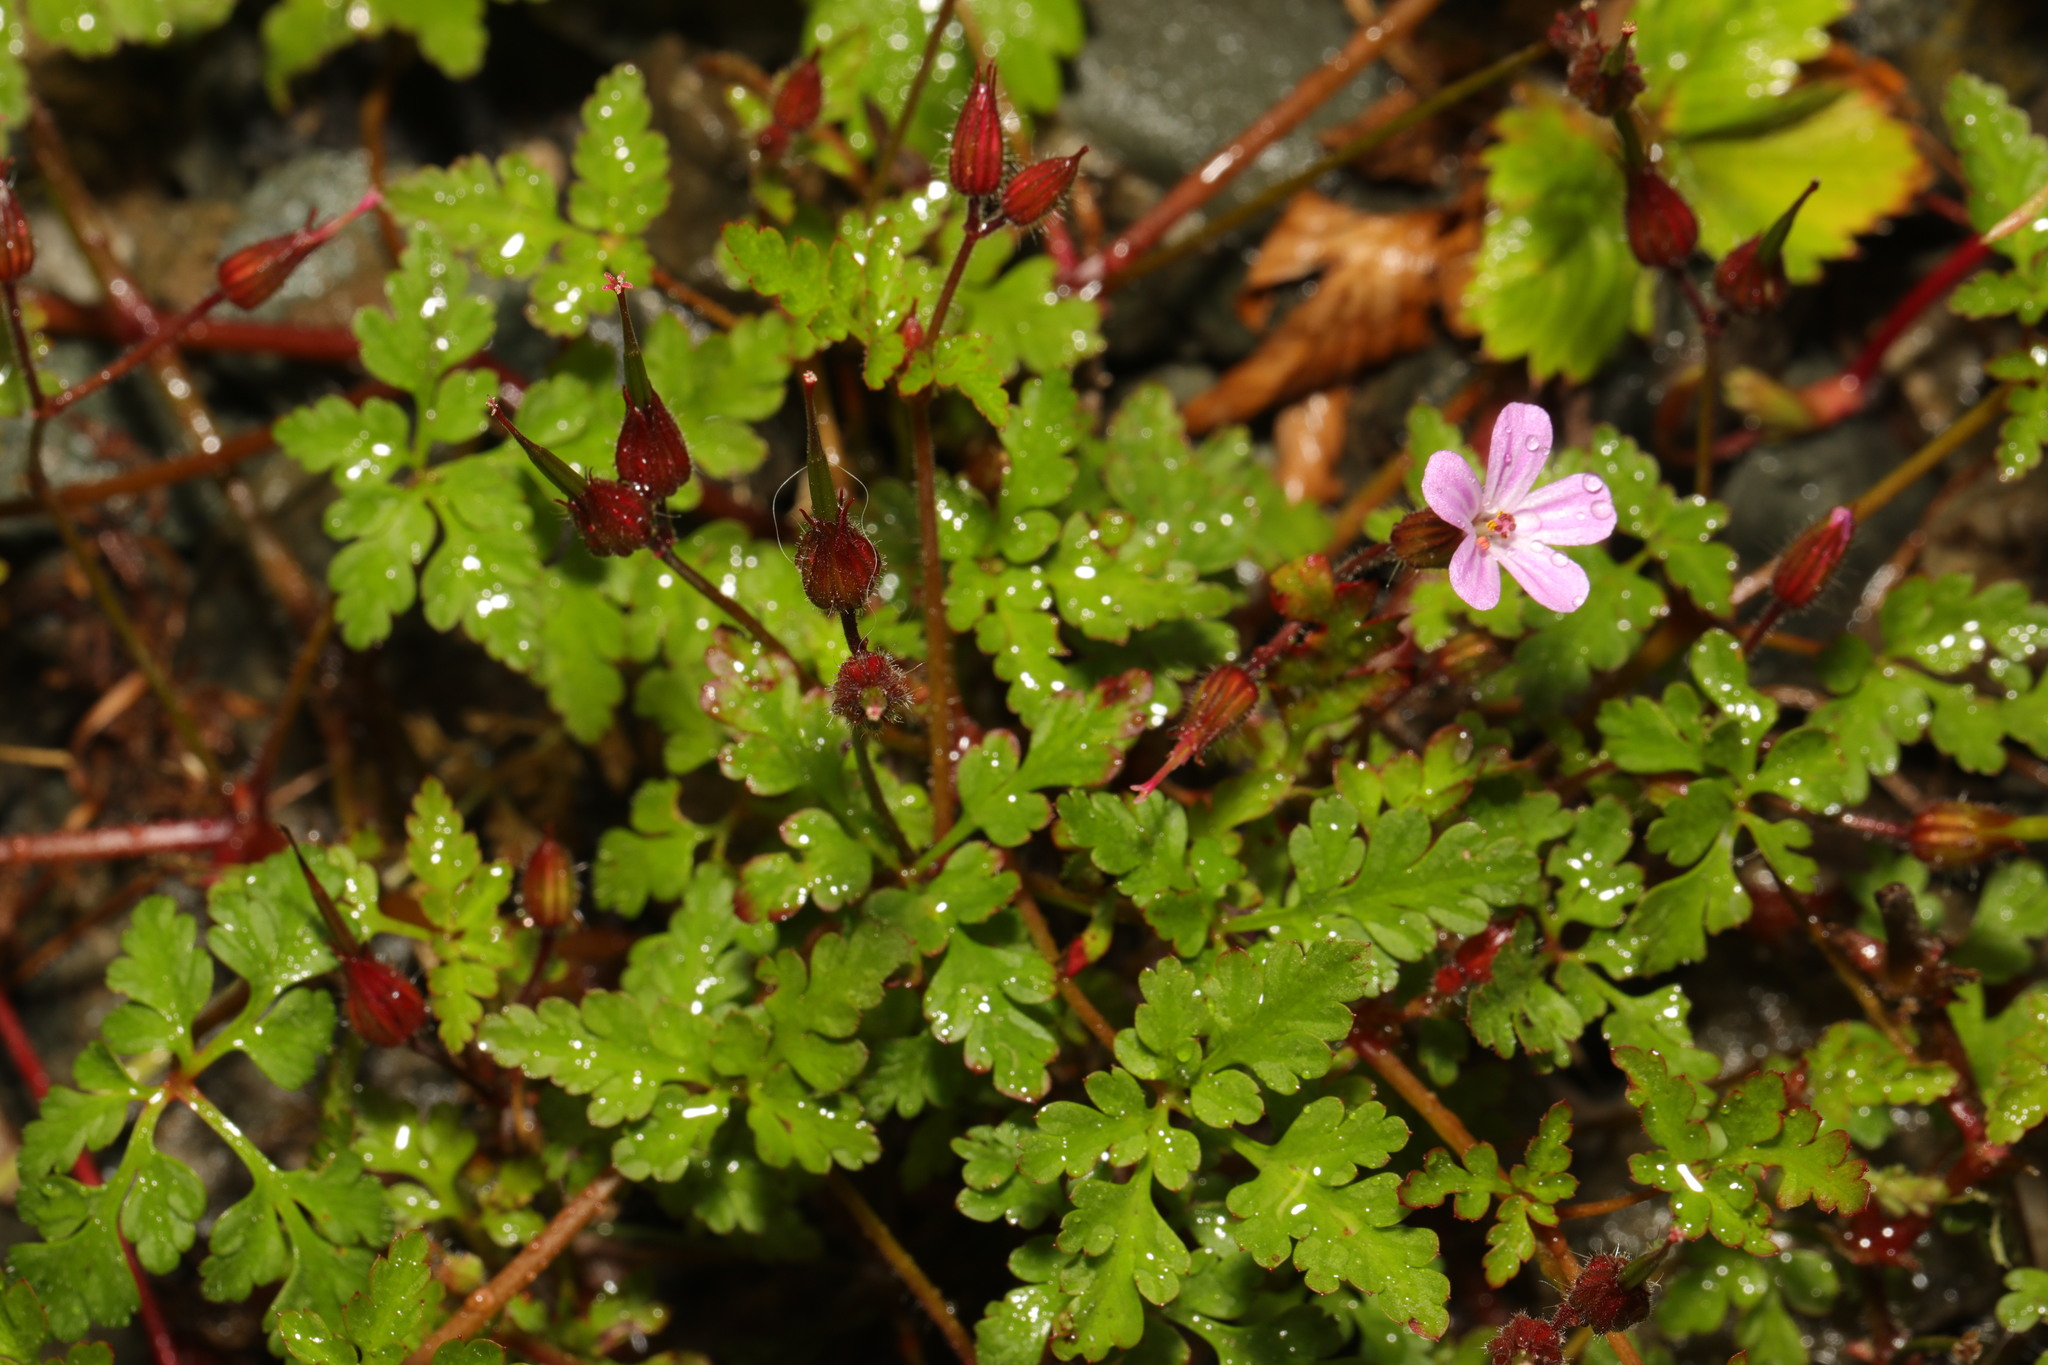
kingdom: Plantae
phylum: Tracheophyta
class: Magnoliopsida
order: Geraniales
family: Geraniaceae
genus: Geranium
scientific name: Geranium robertianum
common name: Herb-robert
